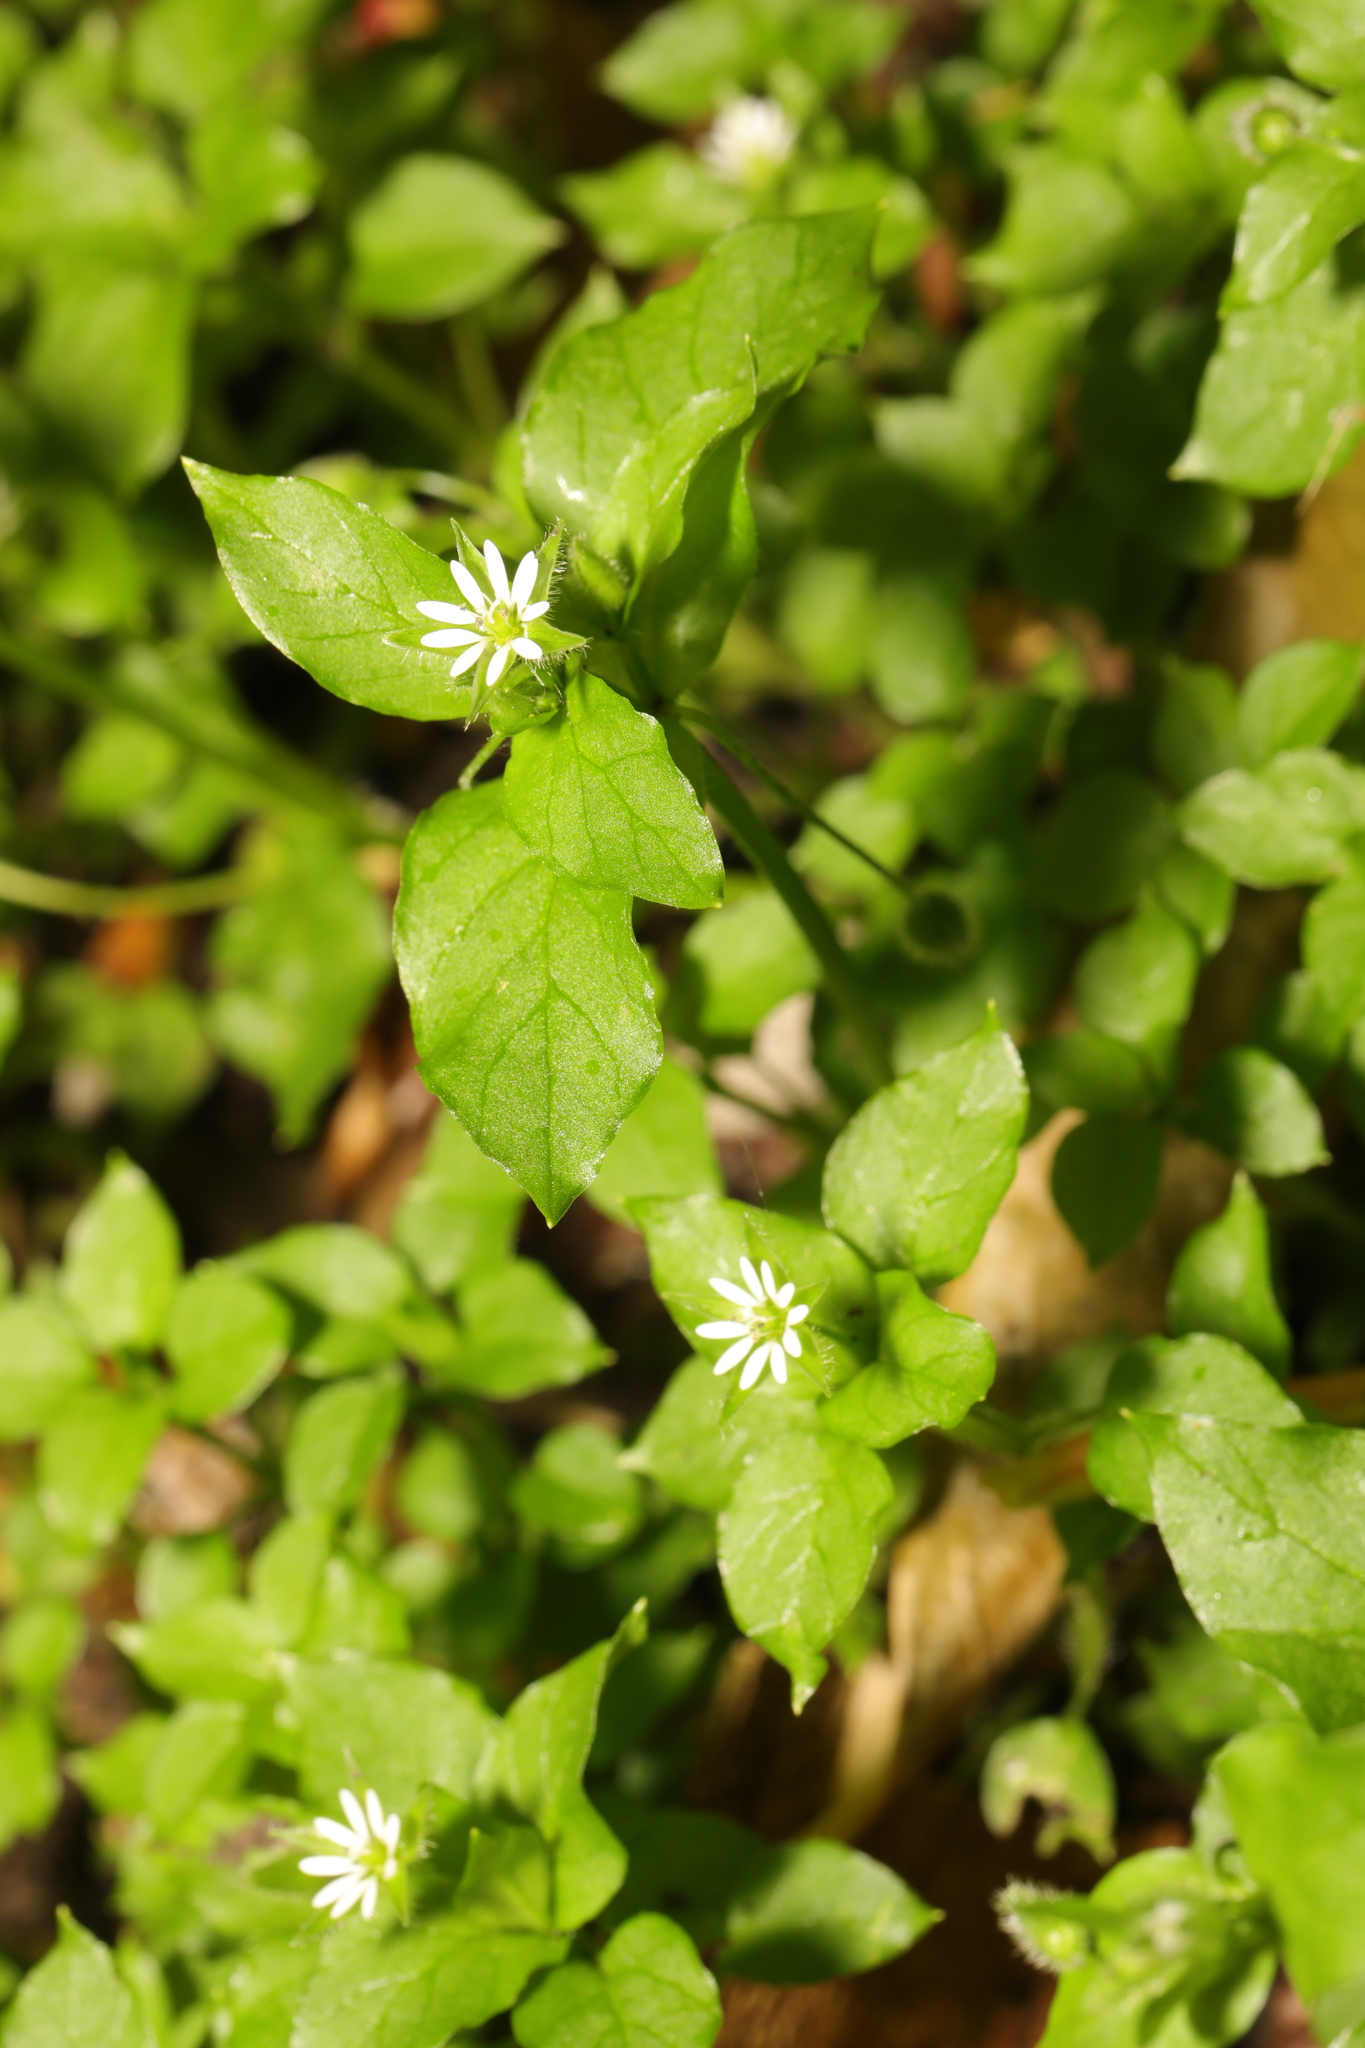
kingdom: Plantae
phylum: Tracheophyta
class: Magnoliopsida
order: Caryophyllales
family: Caryophyllaceae
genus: Stellaria
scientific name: Stellaria media
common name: Common chickweed
